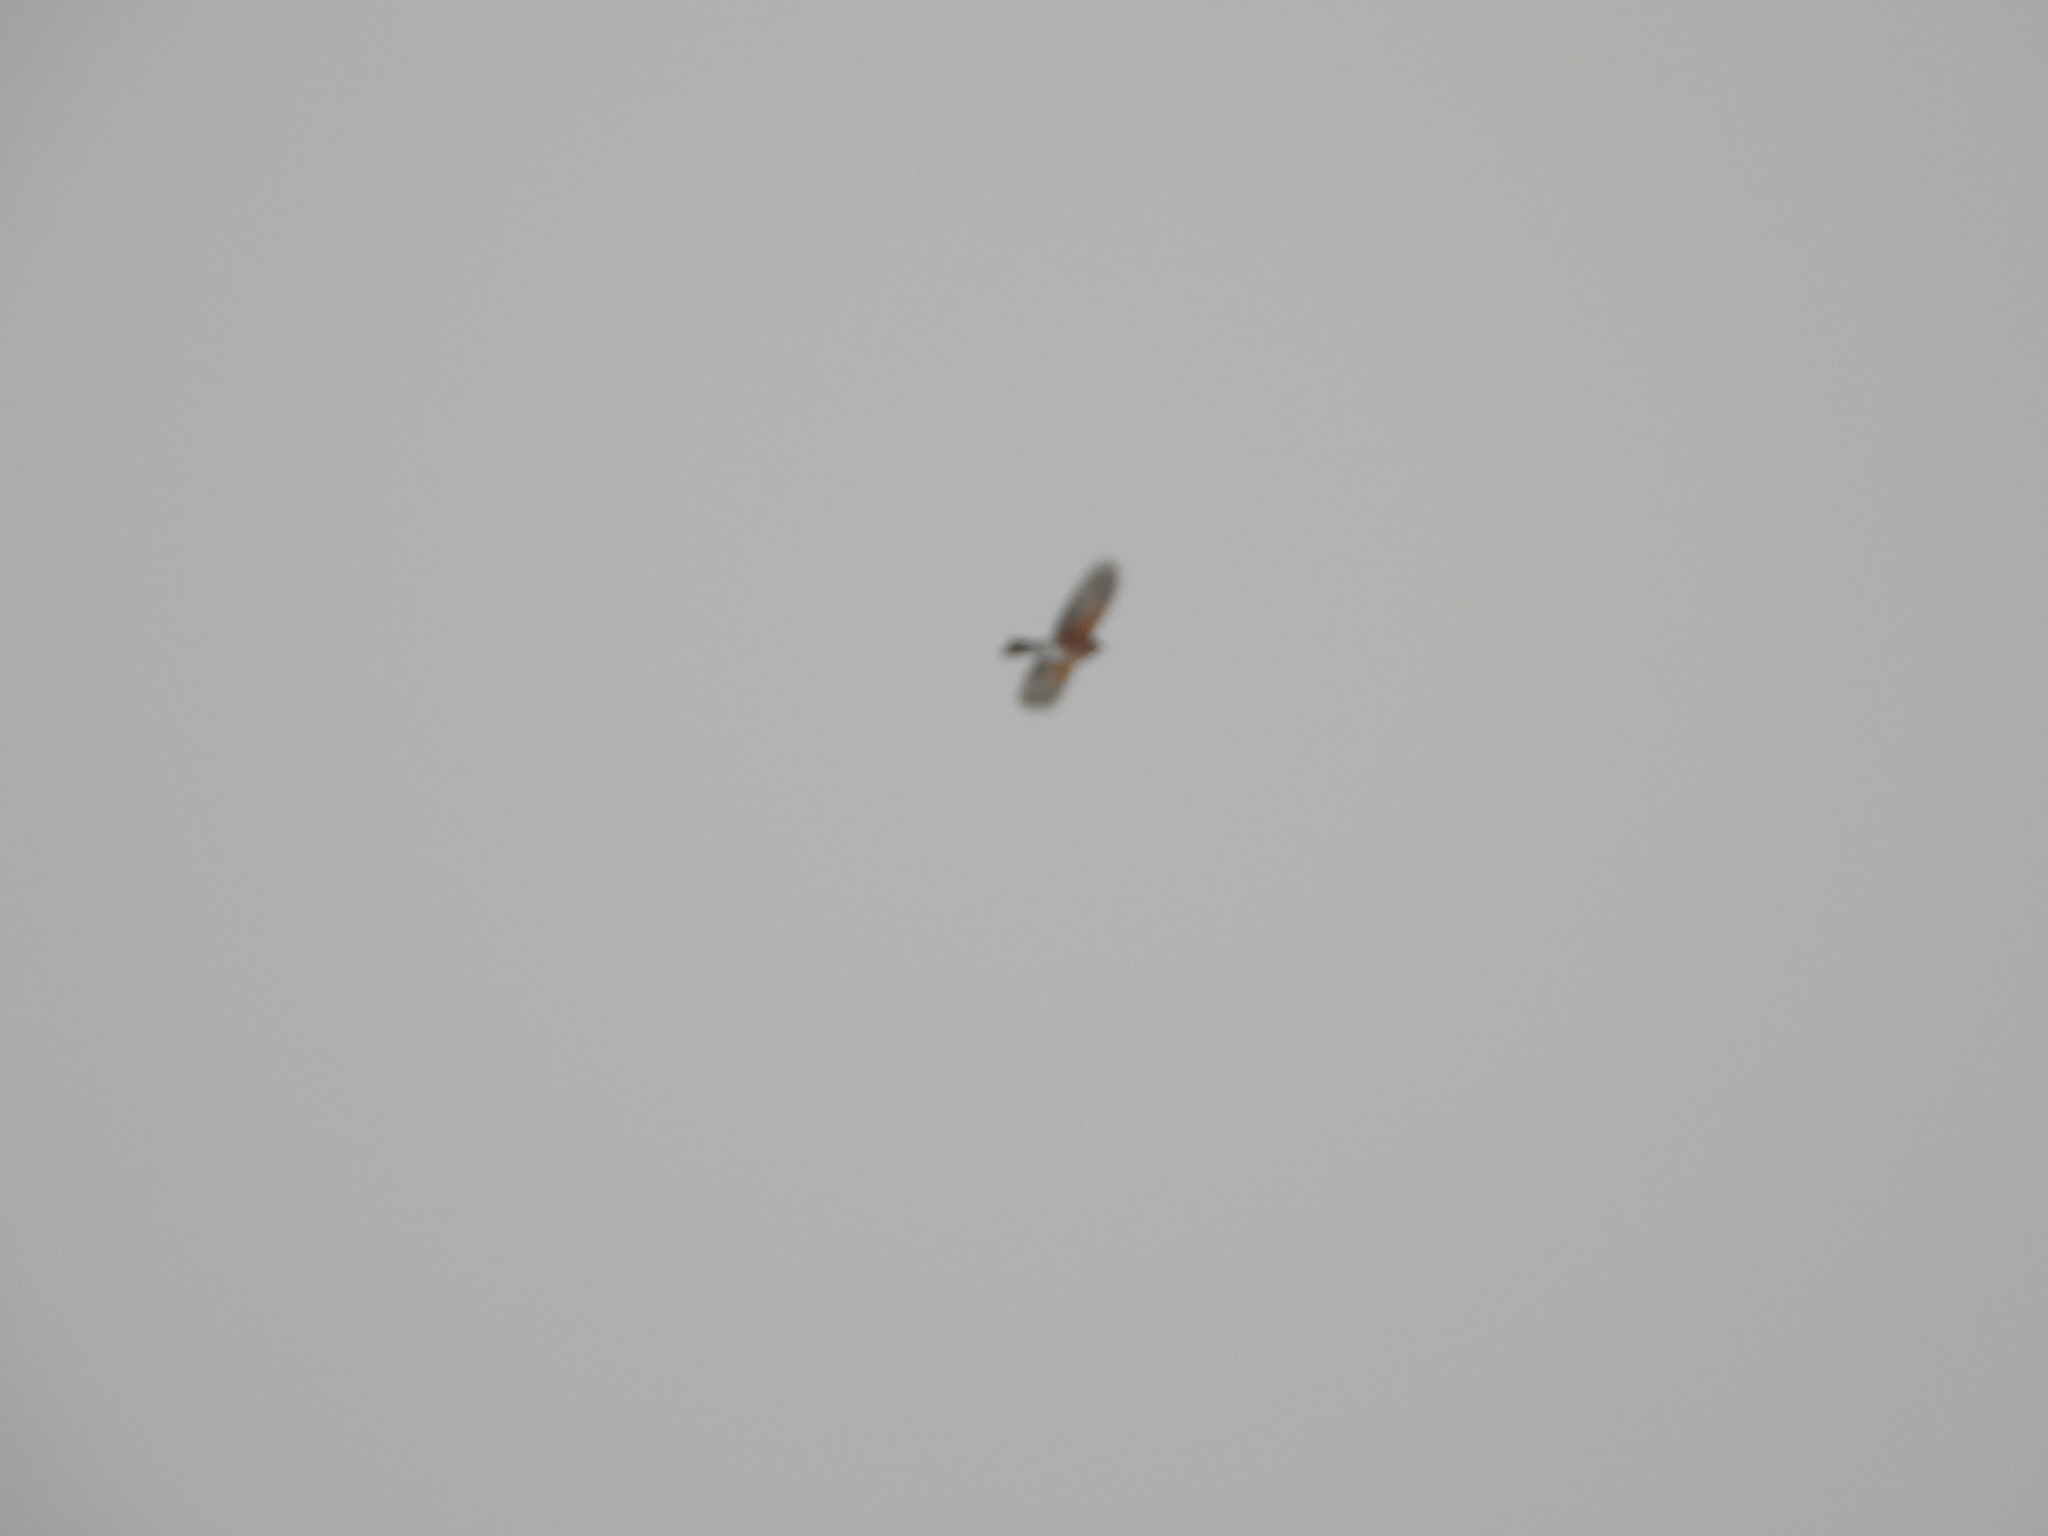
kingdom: Animalia
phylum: Chordata
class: Aves
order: Passeriformes
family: Turdidae
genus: Turdus
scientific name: Turdus migratorius
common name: American robin
